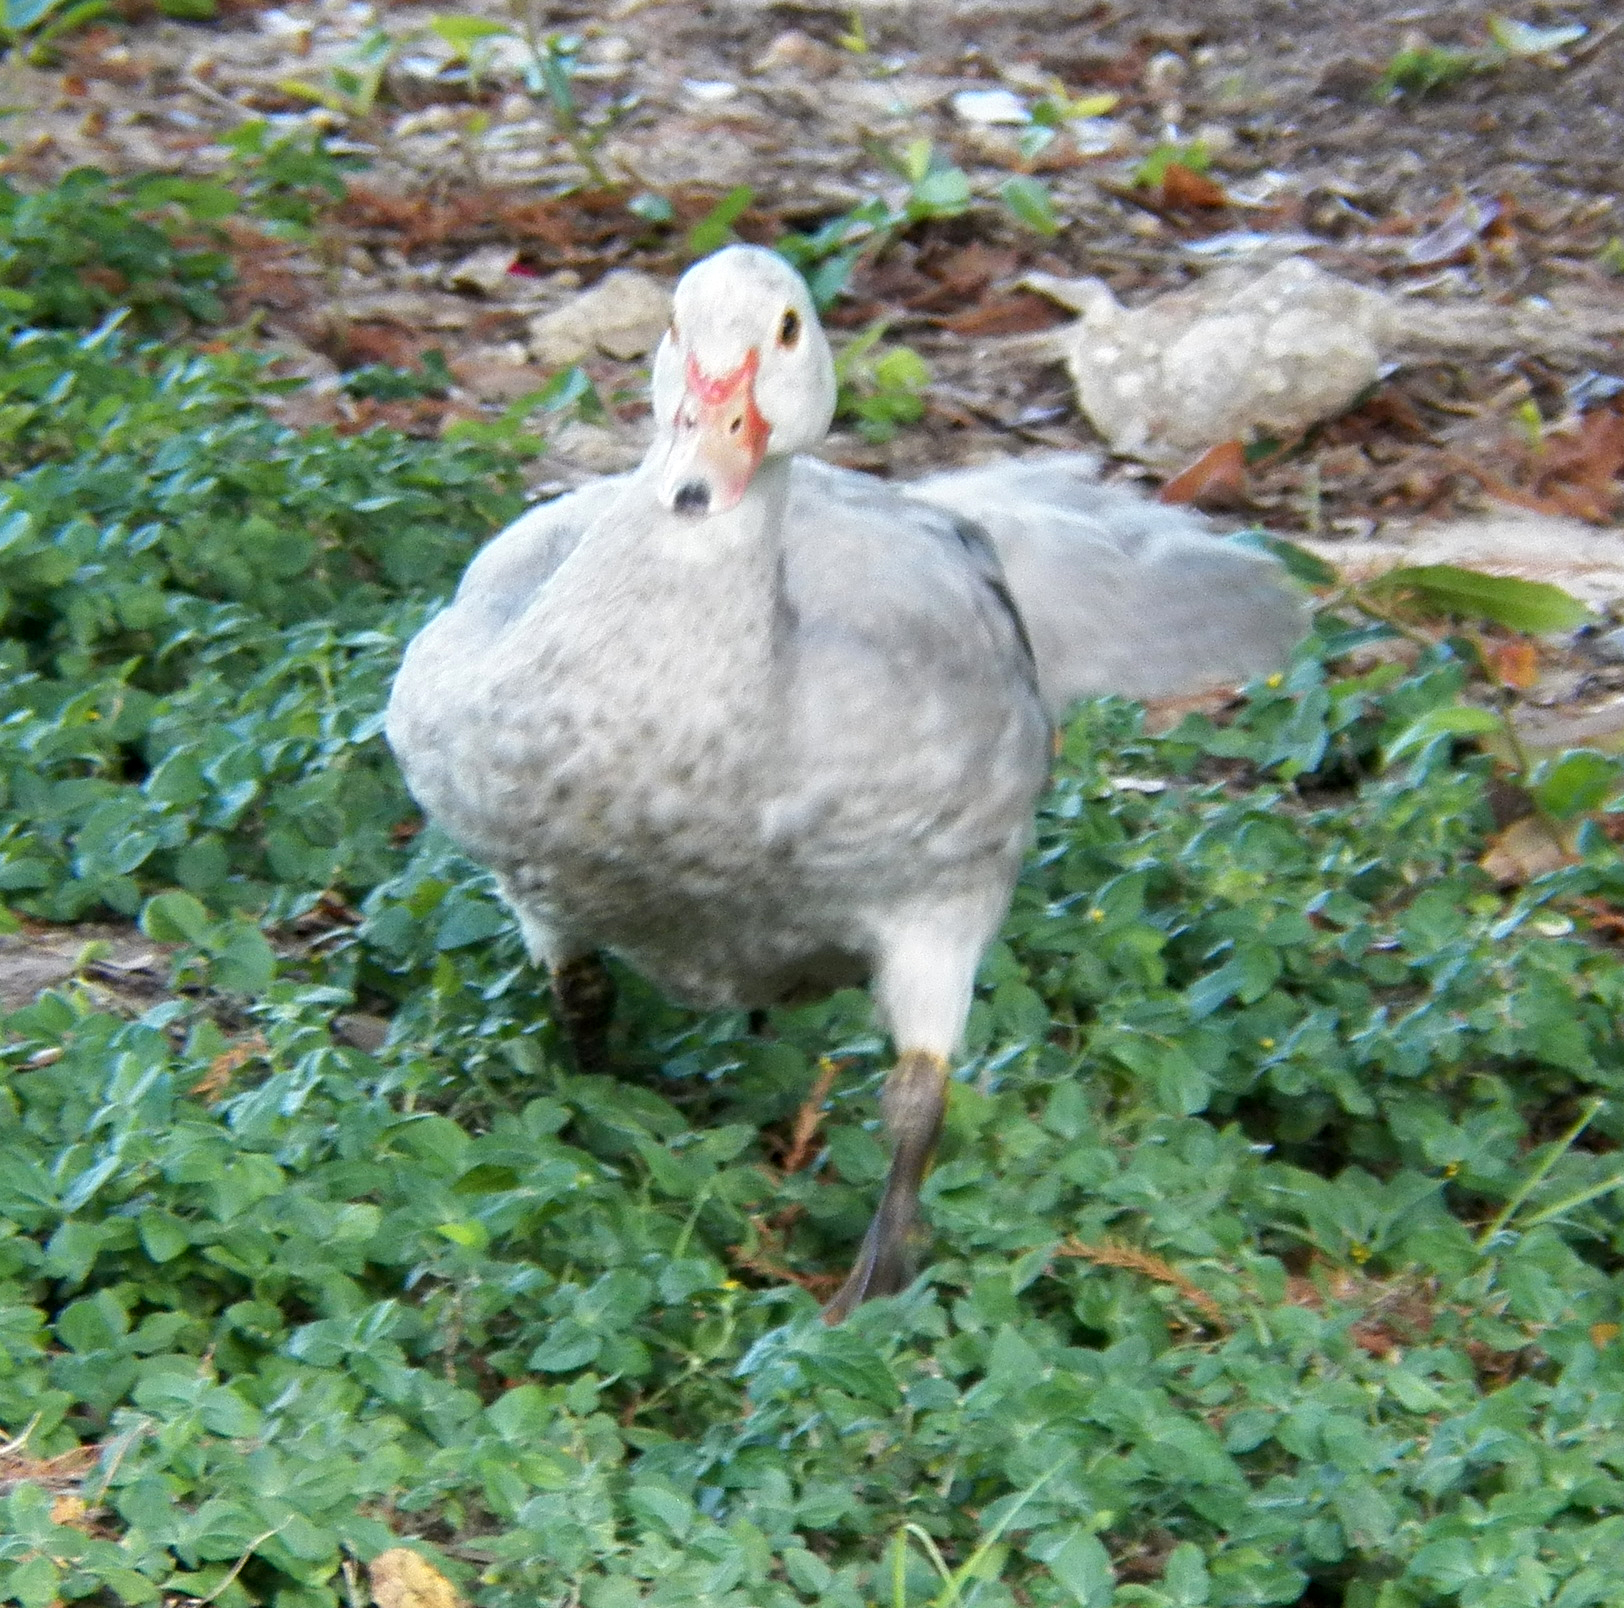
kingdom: Animalia
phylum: Chordata
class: Aves
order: Anseriformes
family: Anatidae
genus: Cairina
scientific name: Cairina moschata
